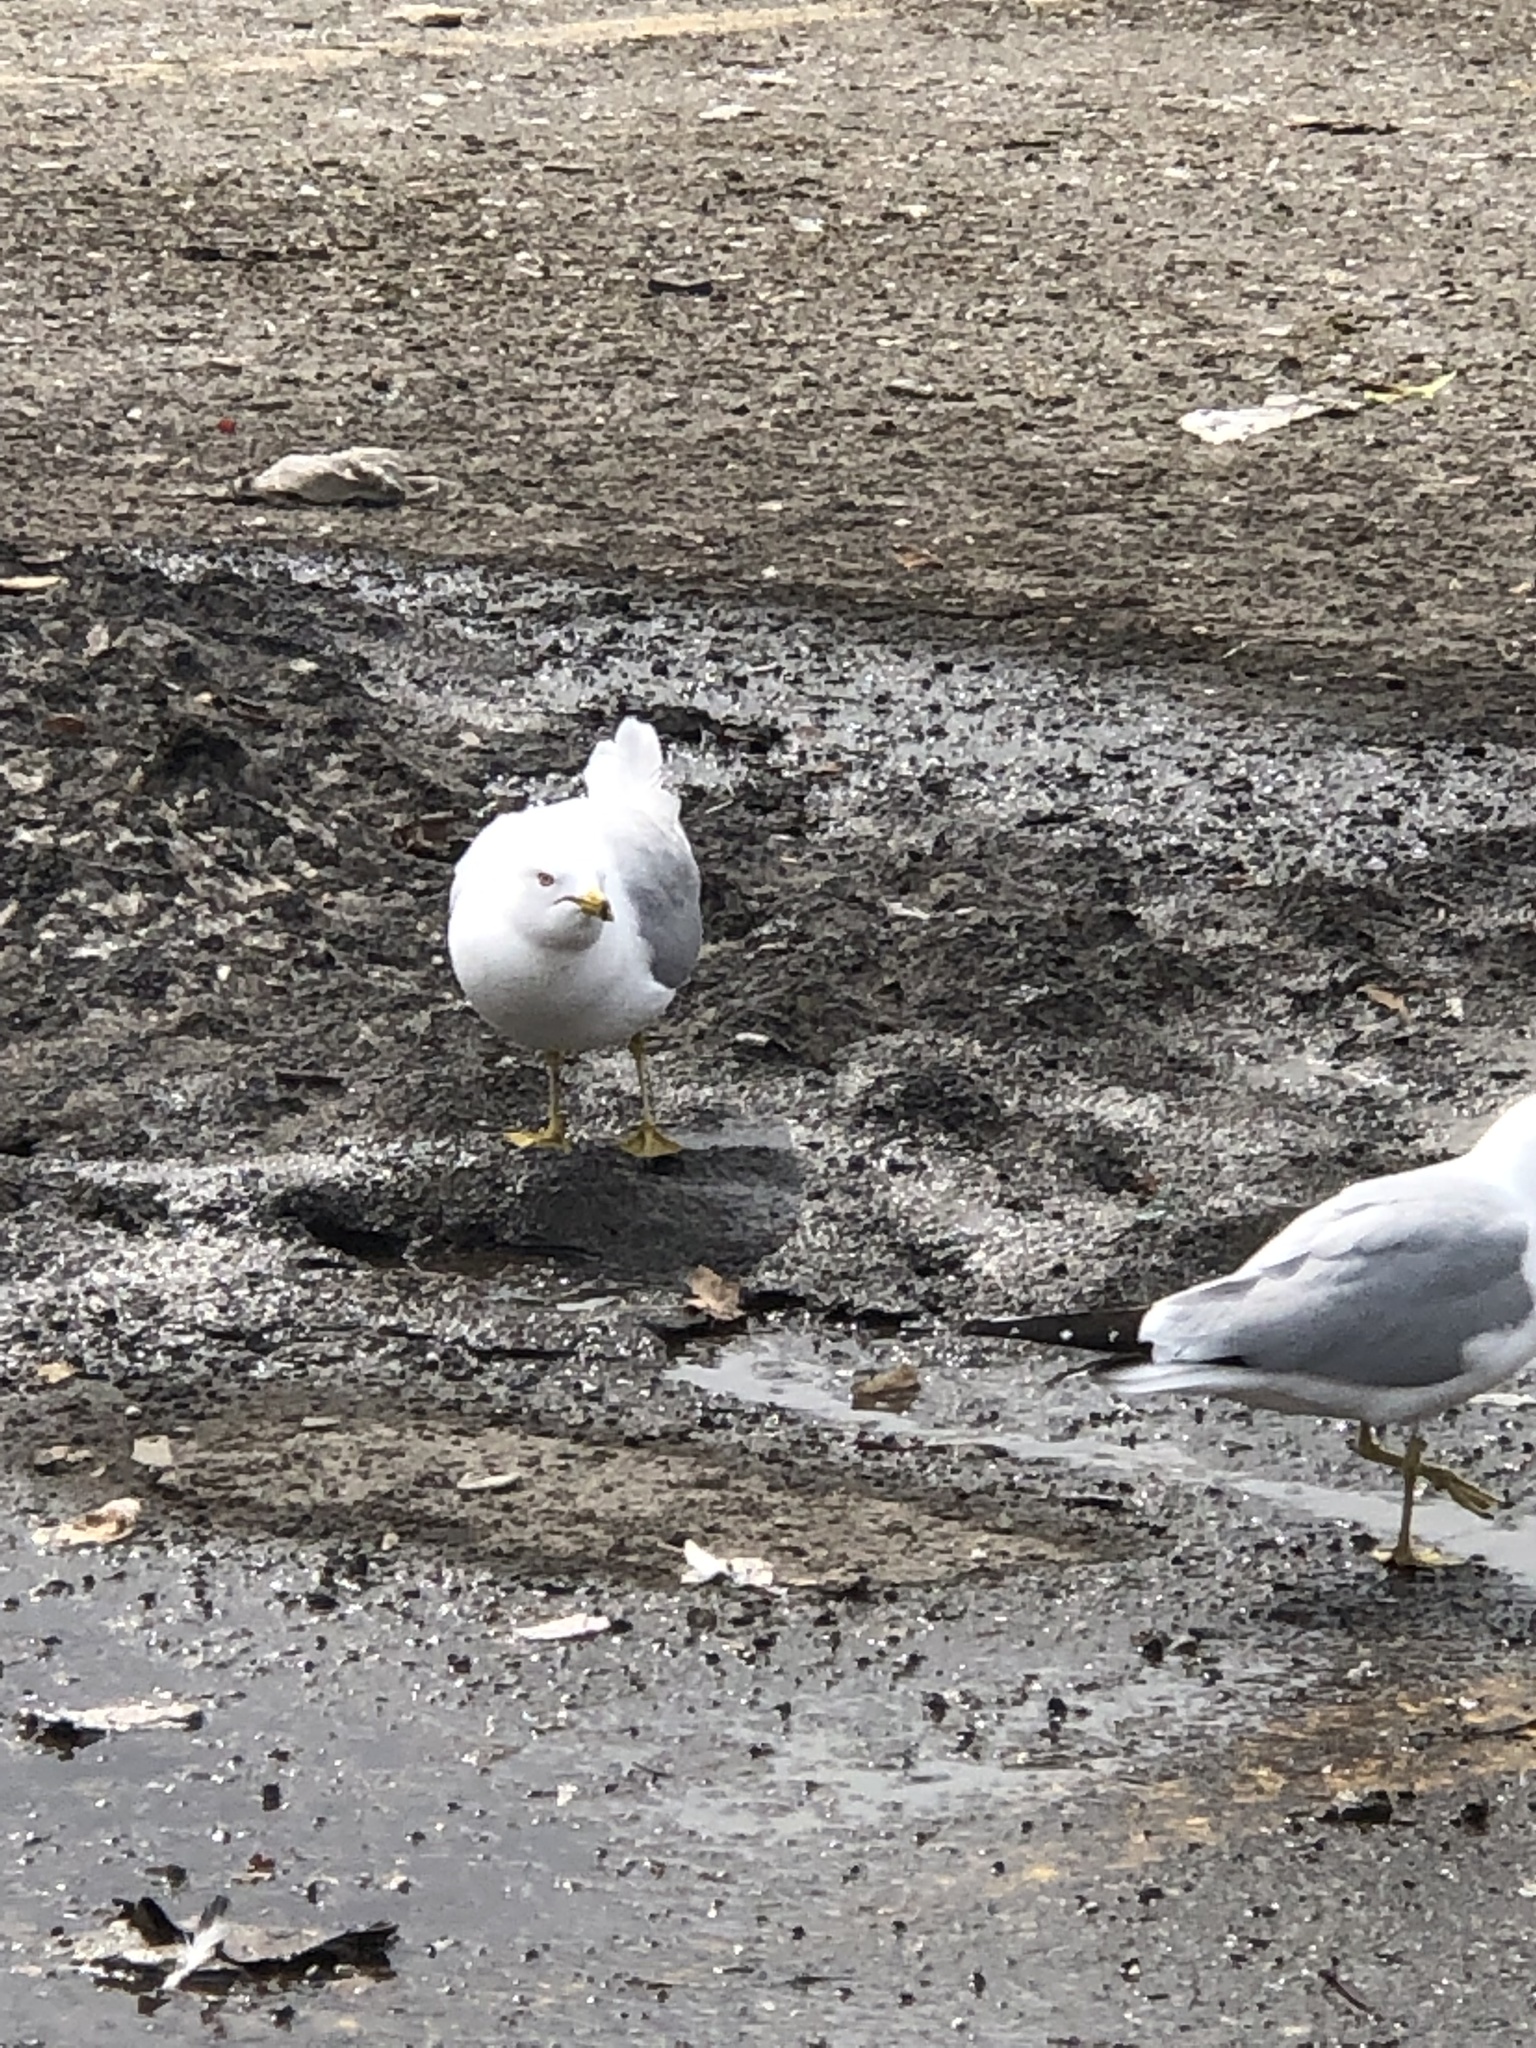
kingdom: Animalia
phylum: Chordata
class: Aves
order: Charadriiformes
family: Laridae
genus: Larus
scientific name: Larus delawarensis
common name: Ring-billed gull
